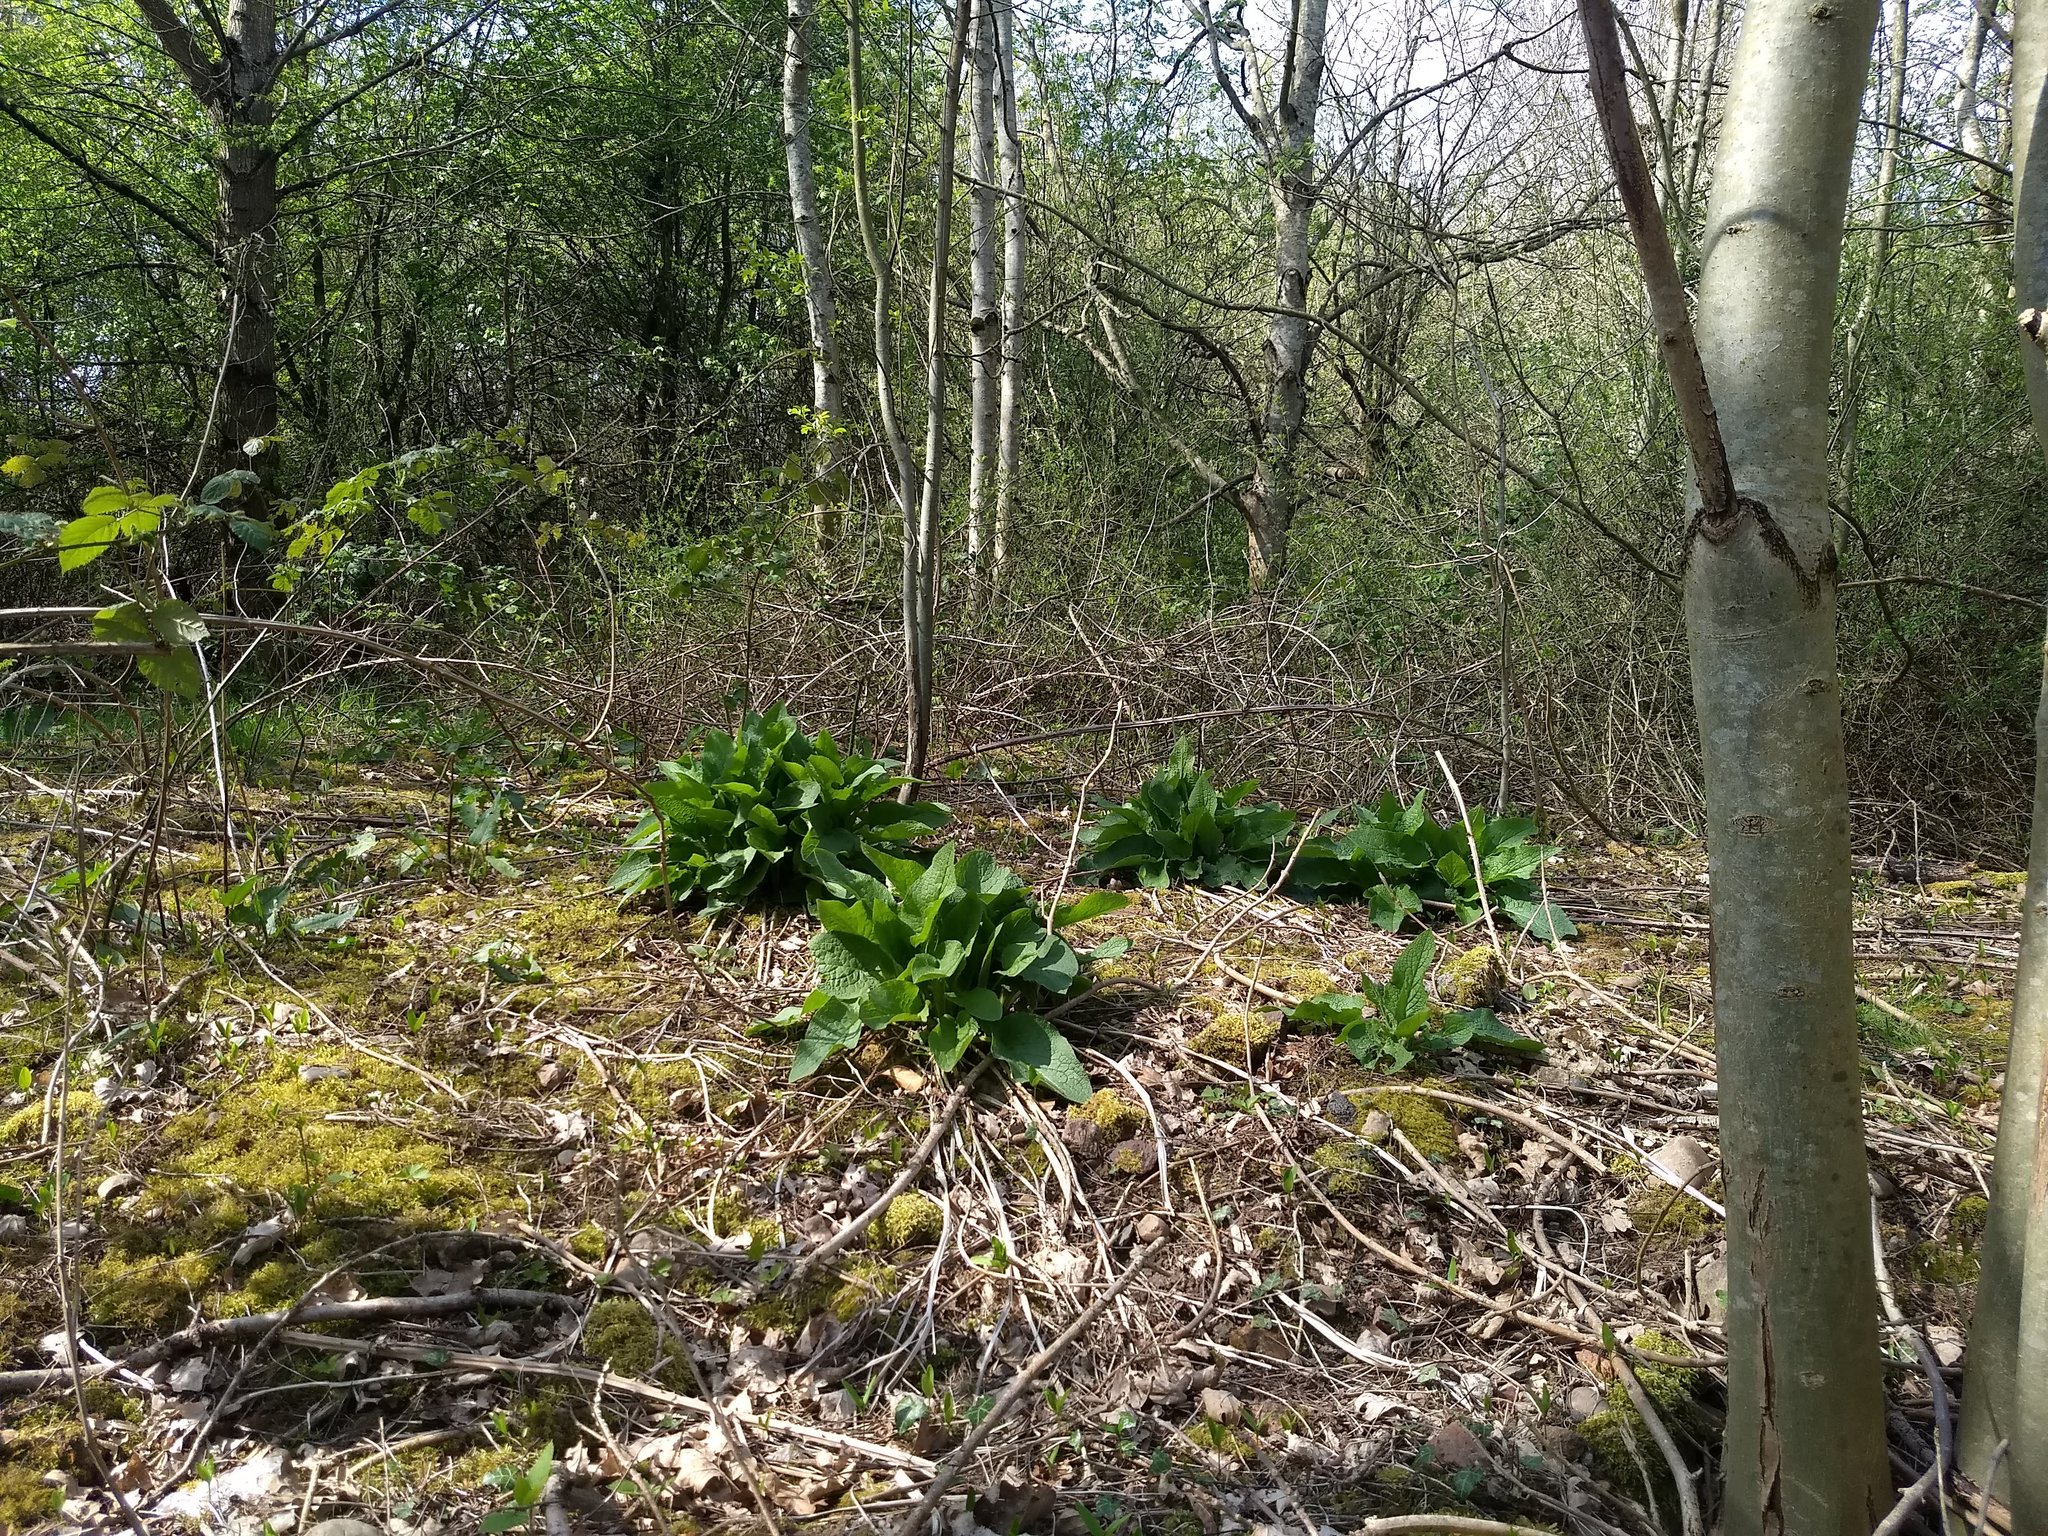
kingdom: Plantae
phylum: Tracheophyta
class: Magnoliopsida
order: Lamiales
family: Plantaginaceae
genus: Digitalis
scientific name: Digitalis purpurea
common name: Foxglove
